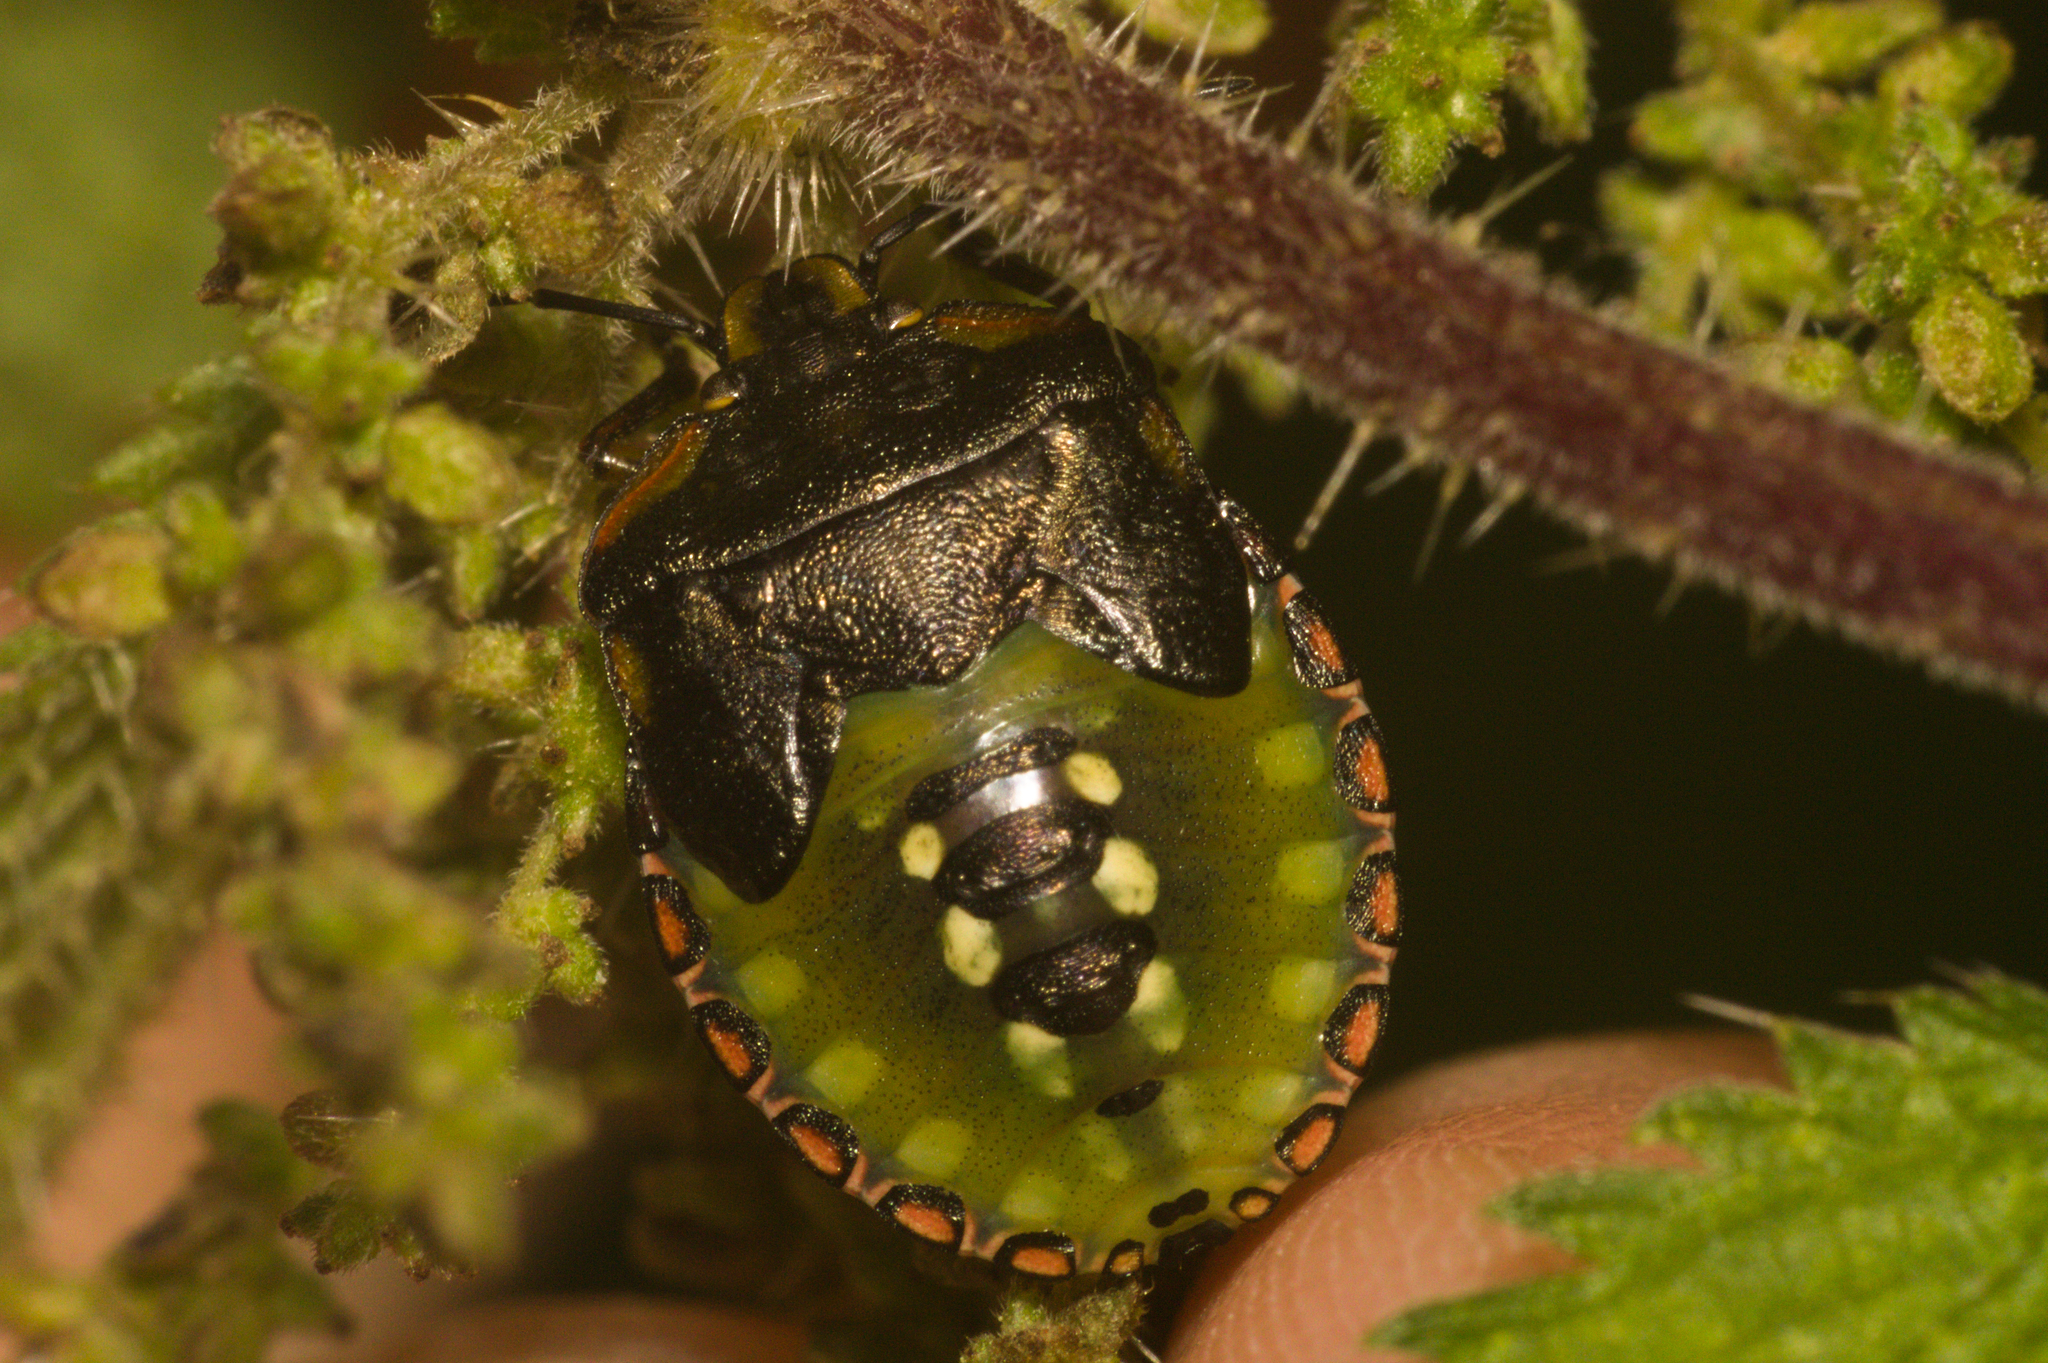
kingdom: Animalia
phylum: Arthropoda
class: Insecta
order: Hemiptera
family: Pentatomidae
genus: Nezara
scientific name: Nezara viridula
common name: Southern green stink bug
